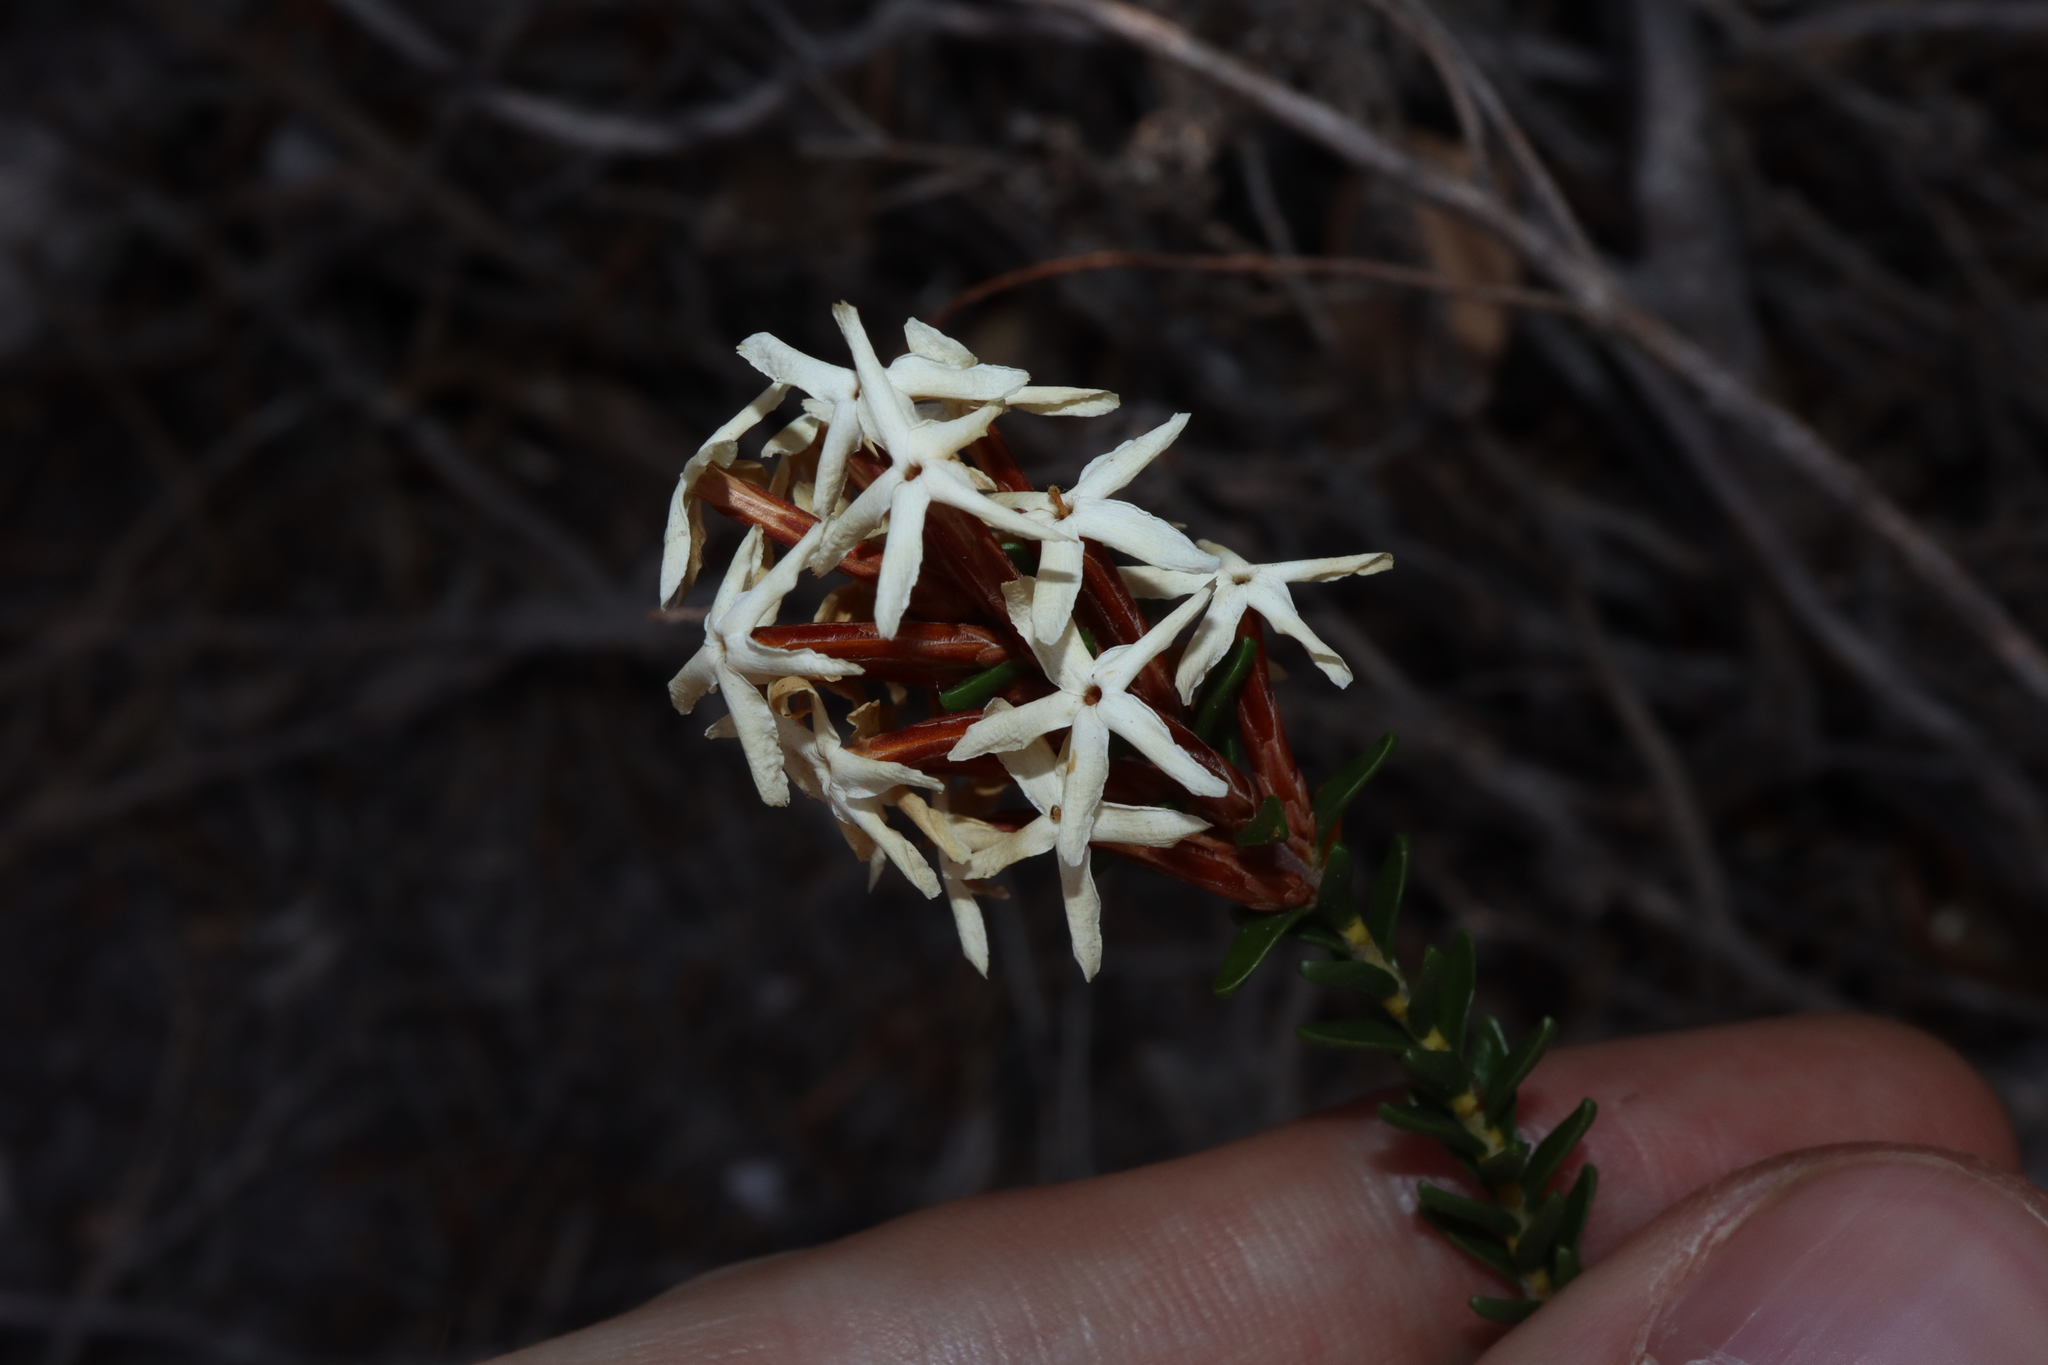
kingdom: Plantae
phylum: Tracheophyta
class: Magnoliopsida
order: Ericales
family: Ericaceae
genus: Lysinema
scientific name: Lysinema pentapetalum
